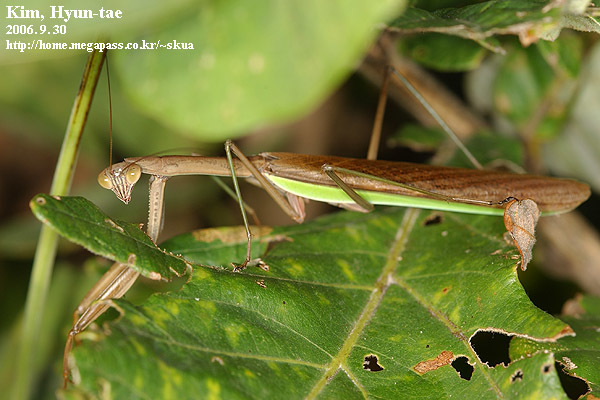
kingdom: Animalia
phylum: Arthropoda
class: Insecta
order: Mantodea
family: Mantidae
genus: Tenodera
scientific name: Tenodera sinensis
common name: Chinese mantis
